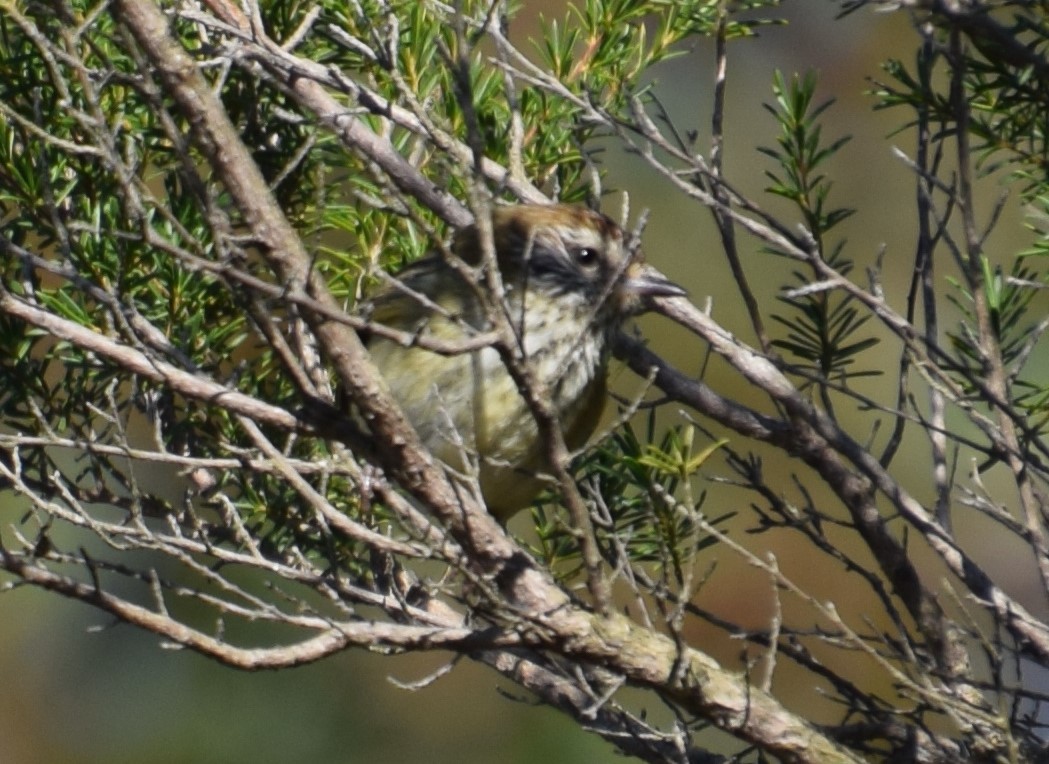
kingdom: Animalia
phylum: Chordata
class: Aves
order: Passeriformes
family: Acanthizidae
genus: Acanthiza
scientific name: Acanthiza lineata
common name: Striated thornbill
